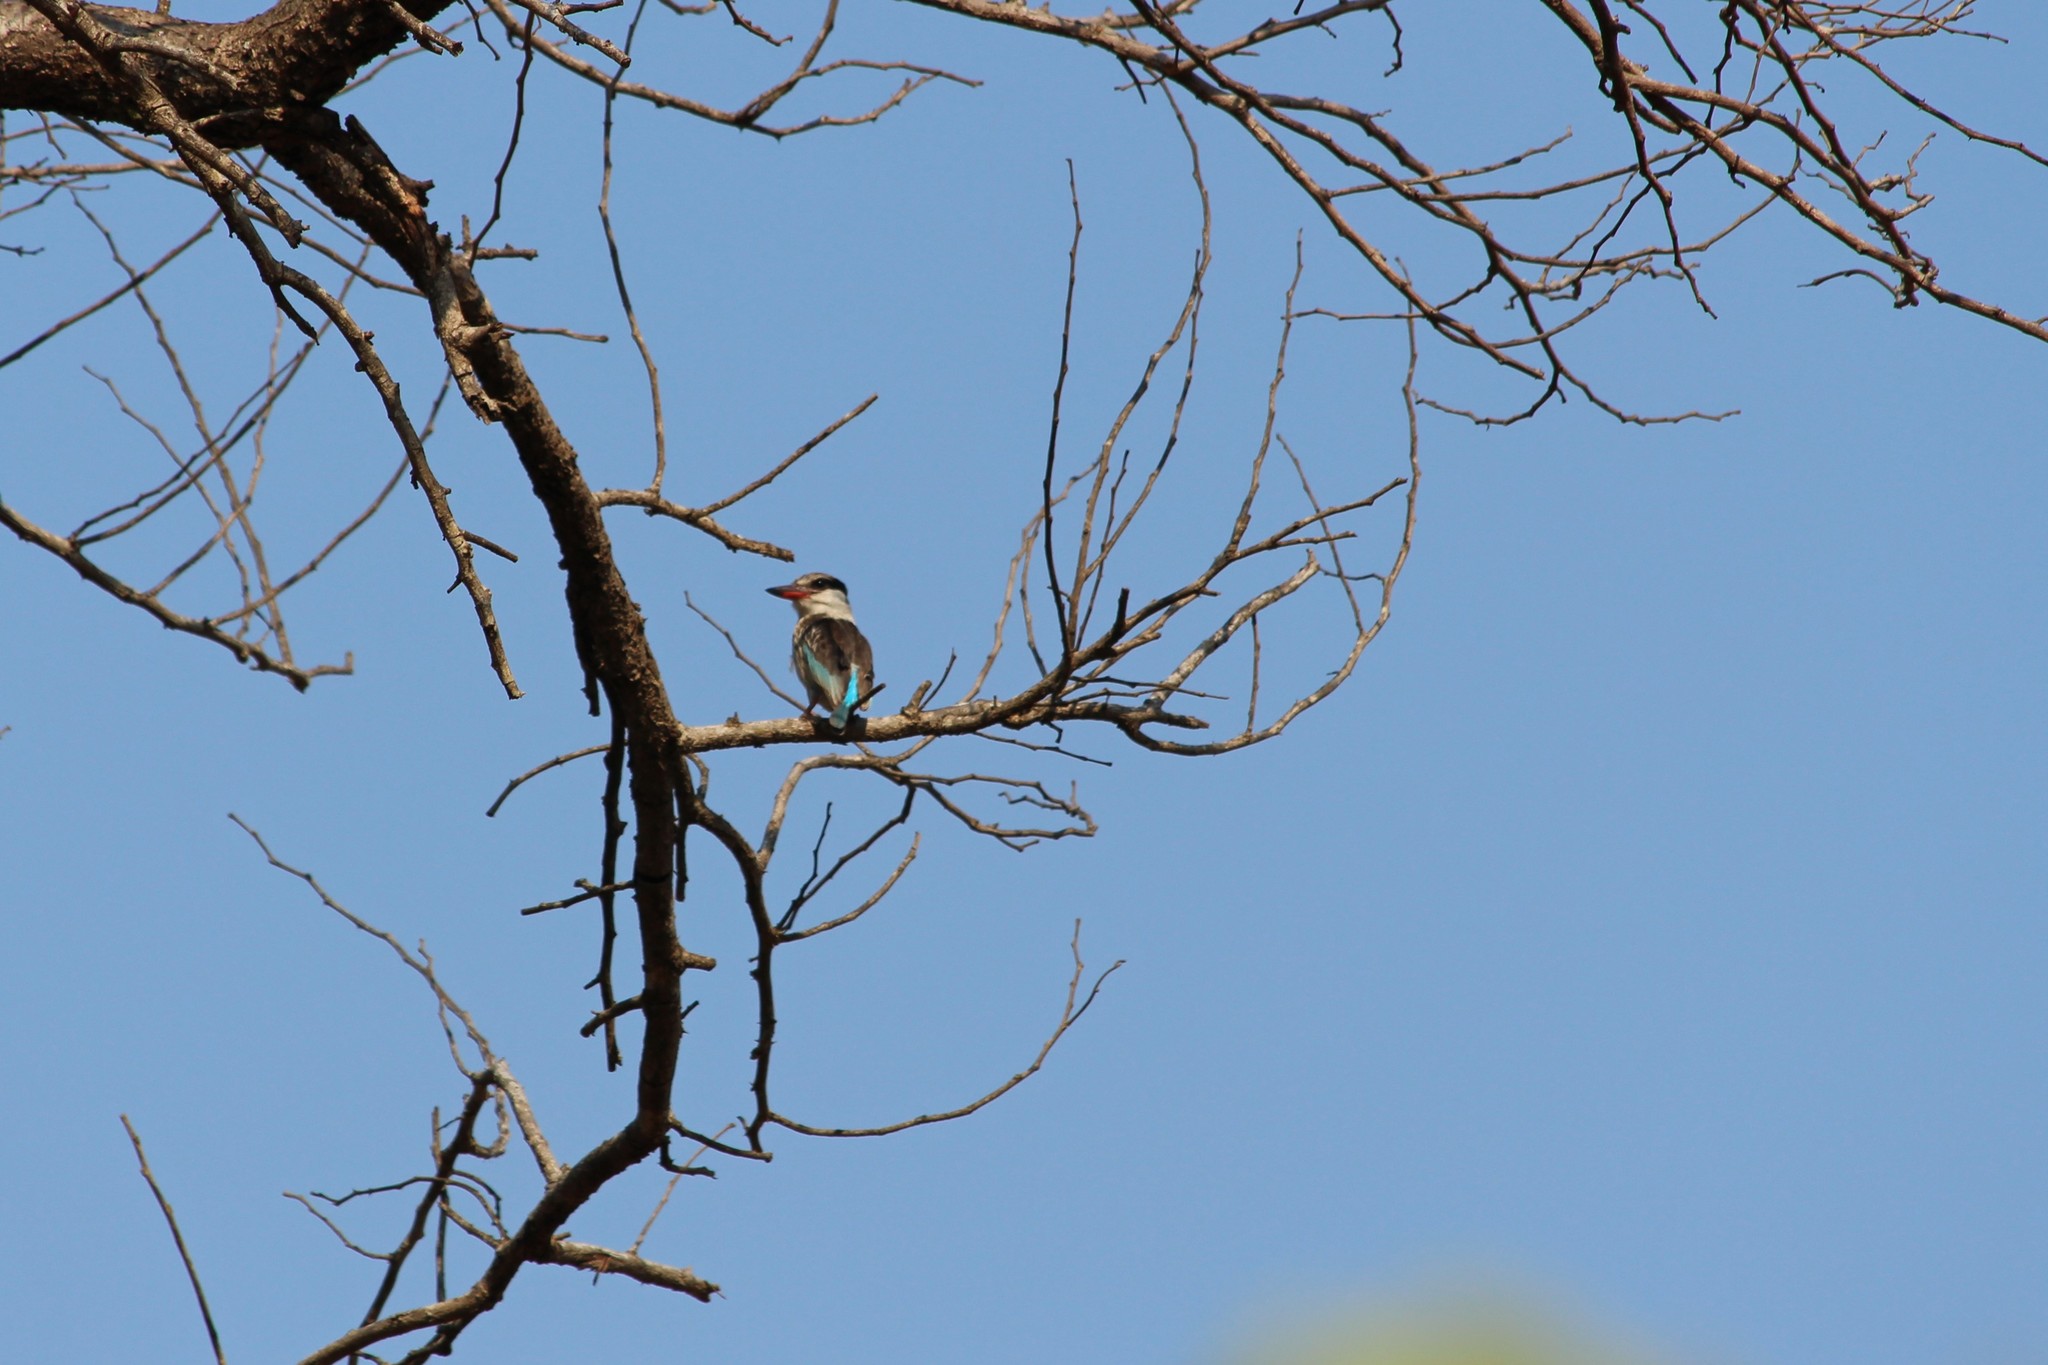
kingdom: Animalia
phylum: Chordata
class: Aves
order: Coraciiformes
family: Alcedinidae
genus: Halcyon
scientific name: Halcyon chelicuti
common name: Striped kingfisher
